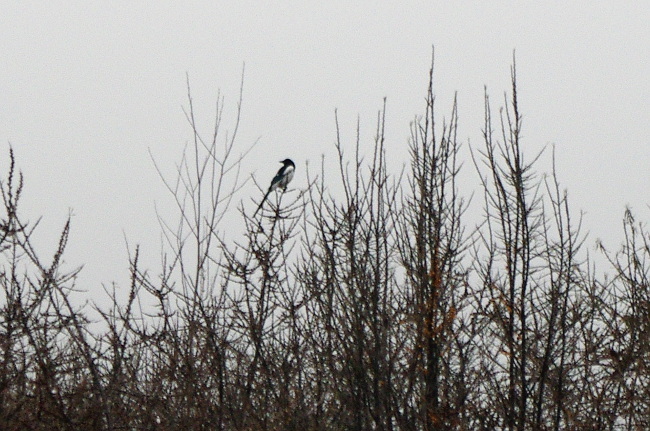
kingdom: Animalia
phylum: Chordata
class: Aves
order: Passeriformes
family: Corvidae
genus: Pica
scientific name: Pica pica
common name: Eurasian magpie
